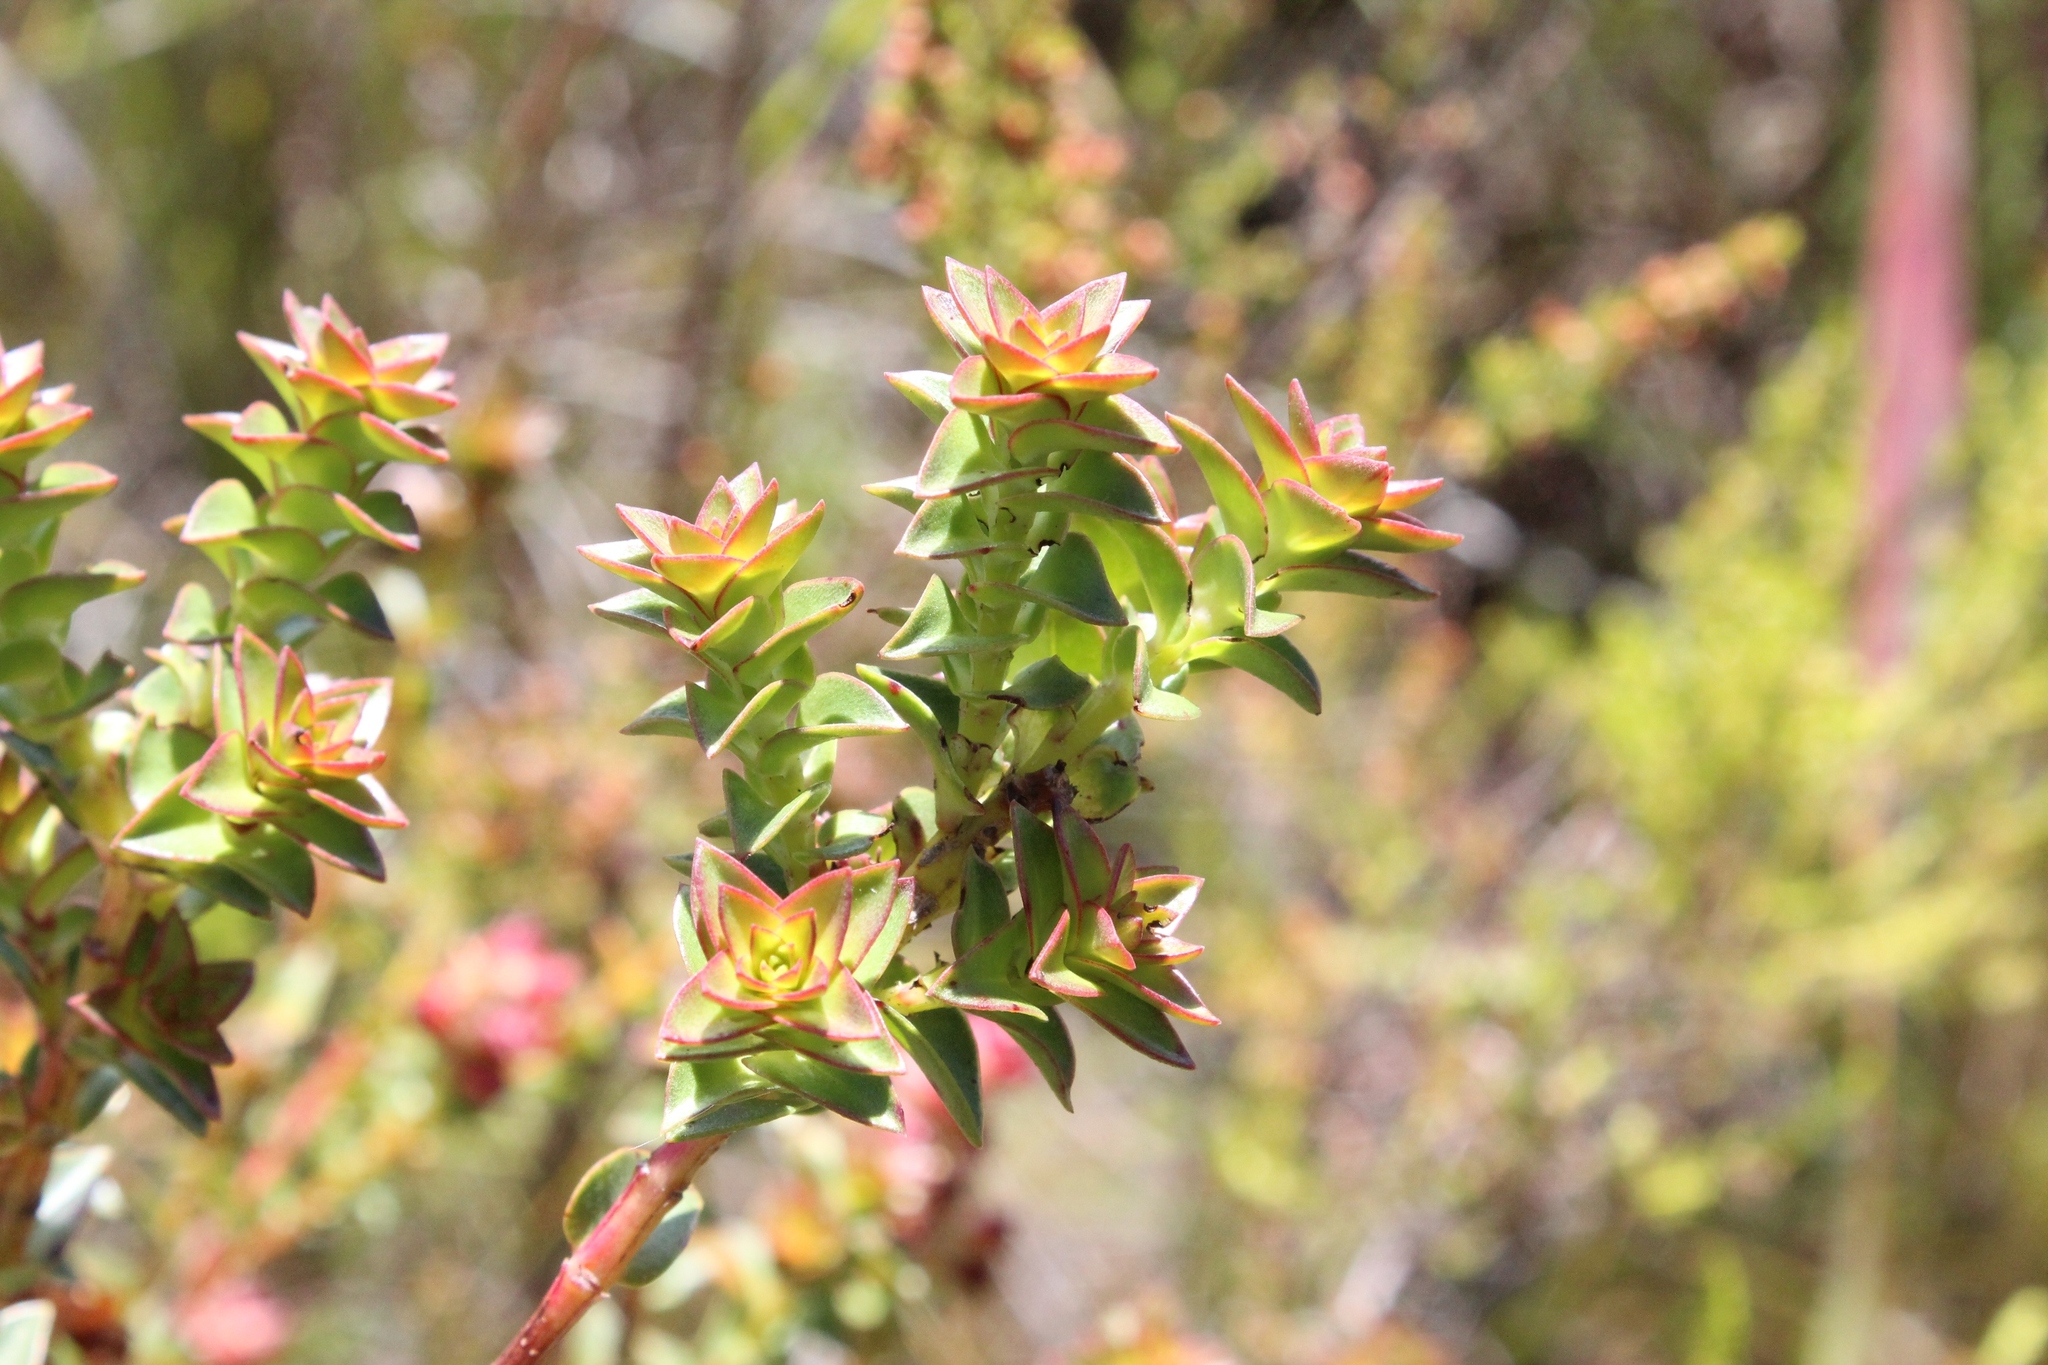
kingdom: Plantae
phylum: Tracheophyta
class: Magnoliopsida
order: Myrtales
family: Penaeaceae
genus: Penaea
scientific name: Penaea mucronata
